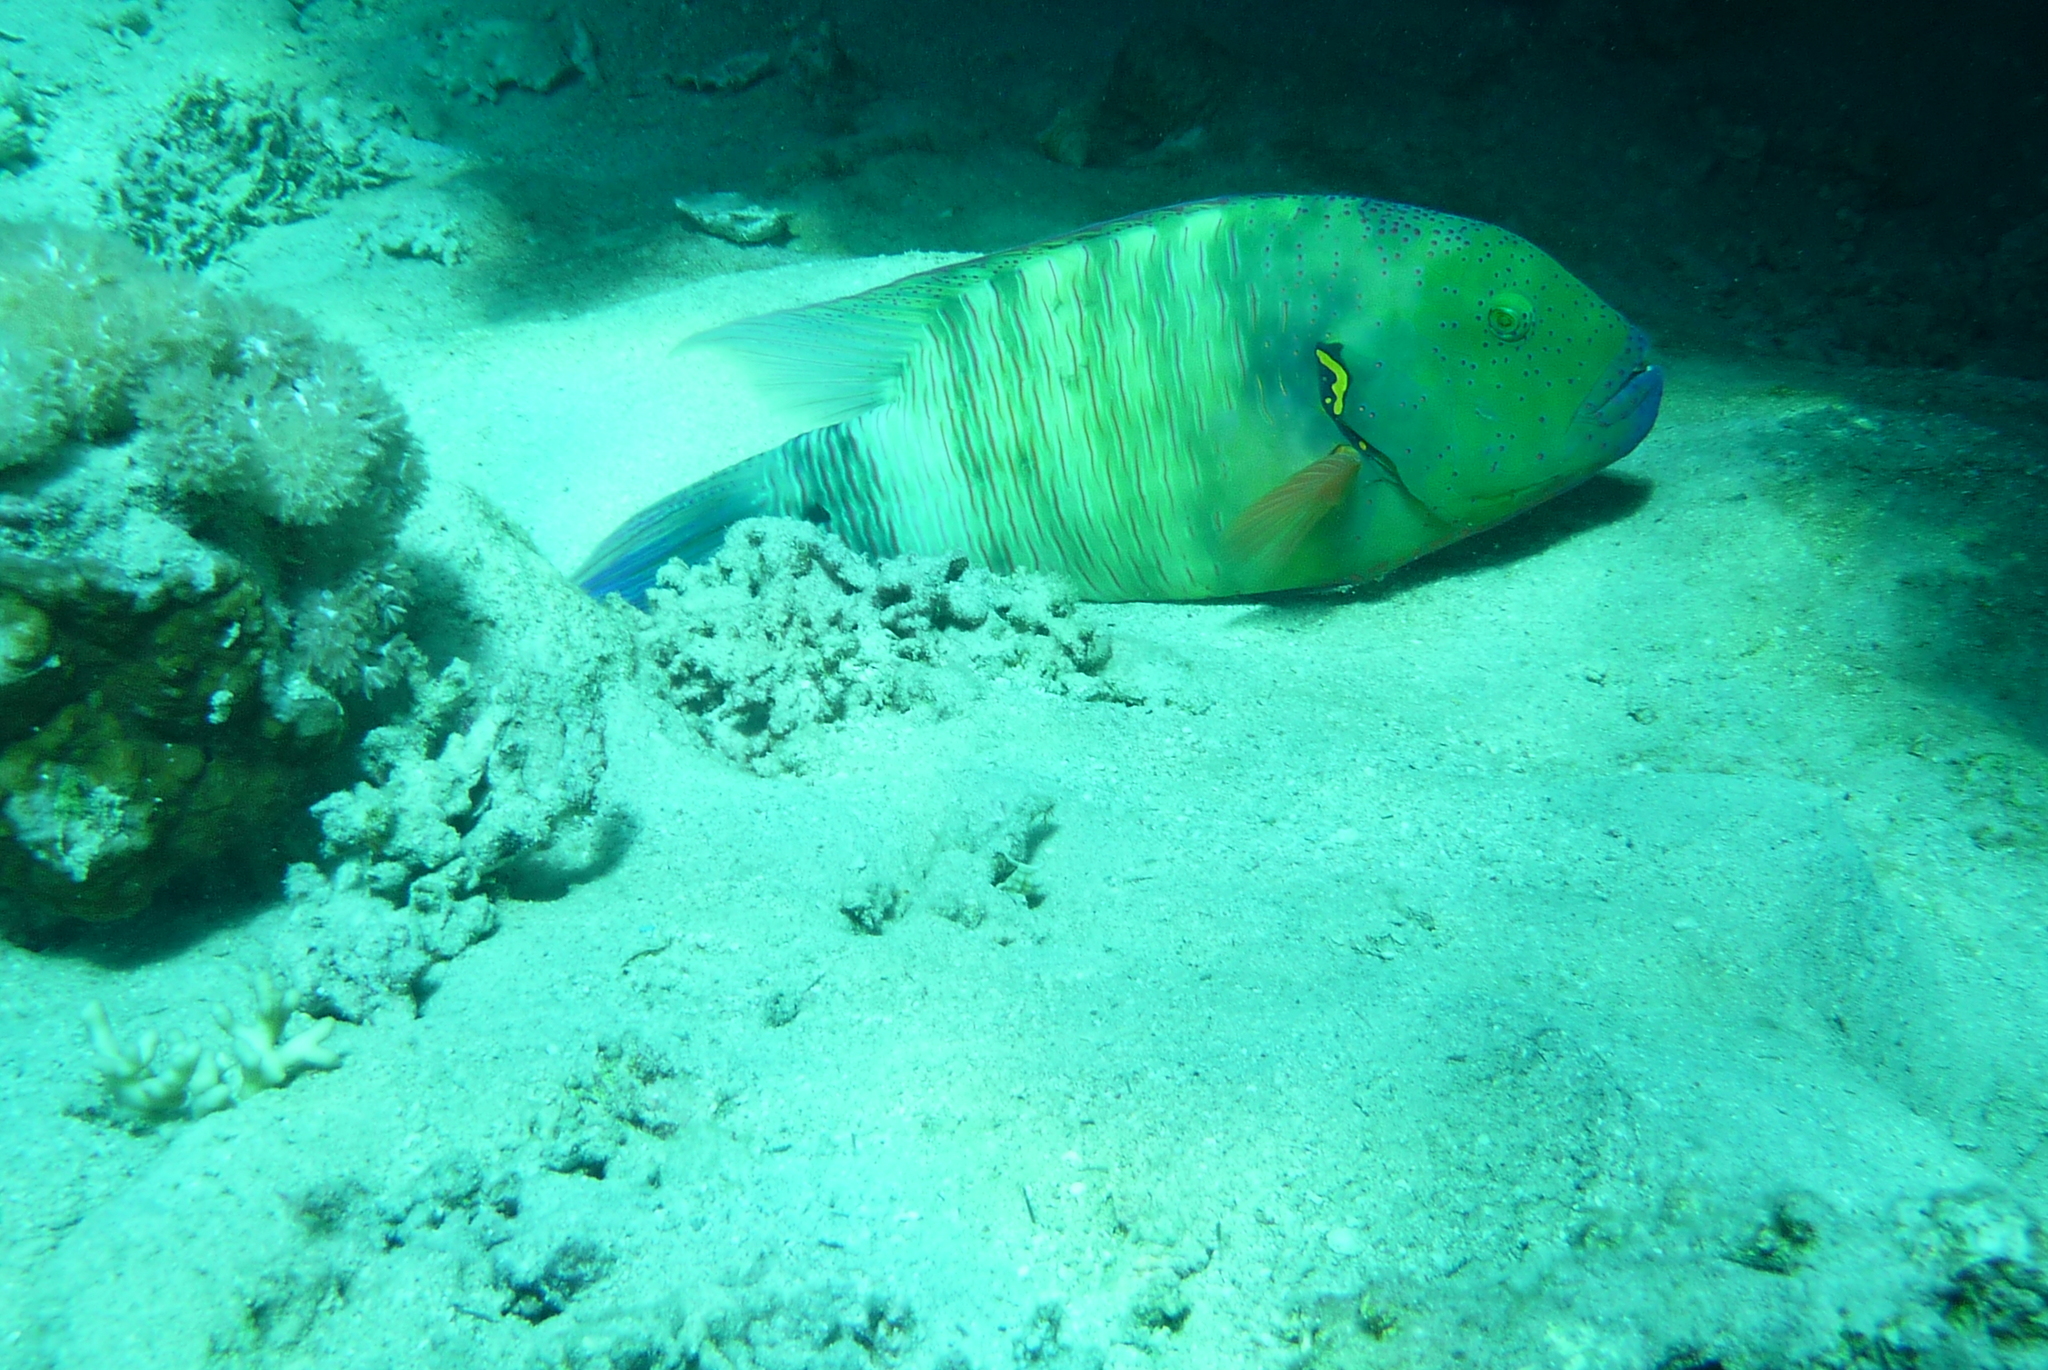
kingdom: Animalia
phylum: Chordata
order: Perciformes
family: Labridae
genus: Cheilinus
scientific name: Cheilinus lunulatus
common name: Broomtail wrasse
